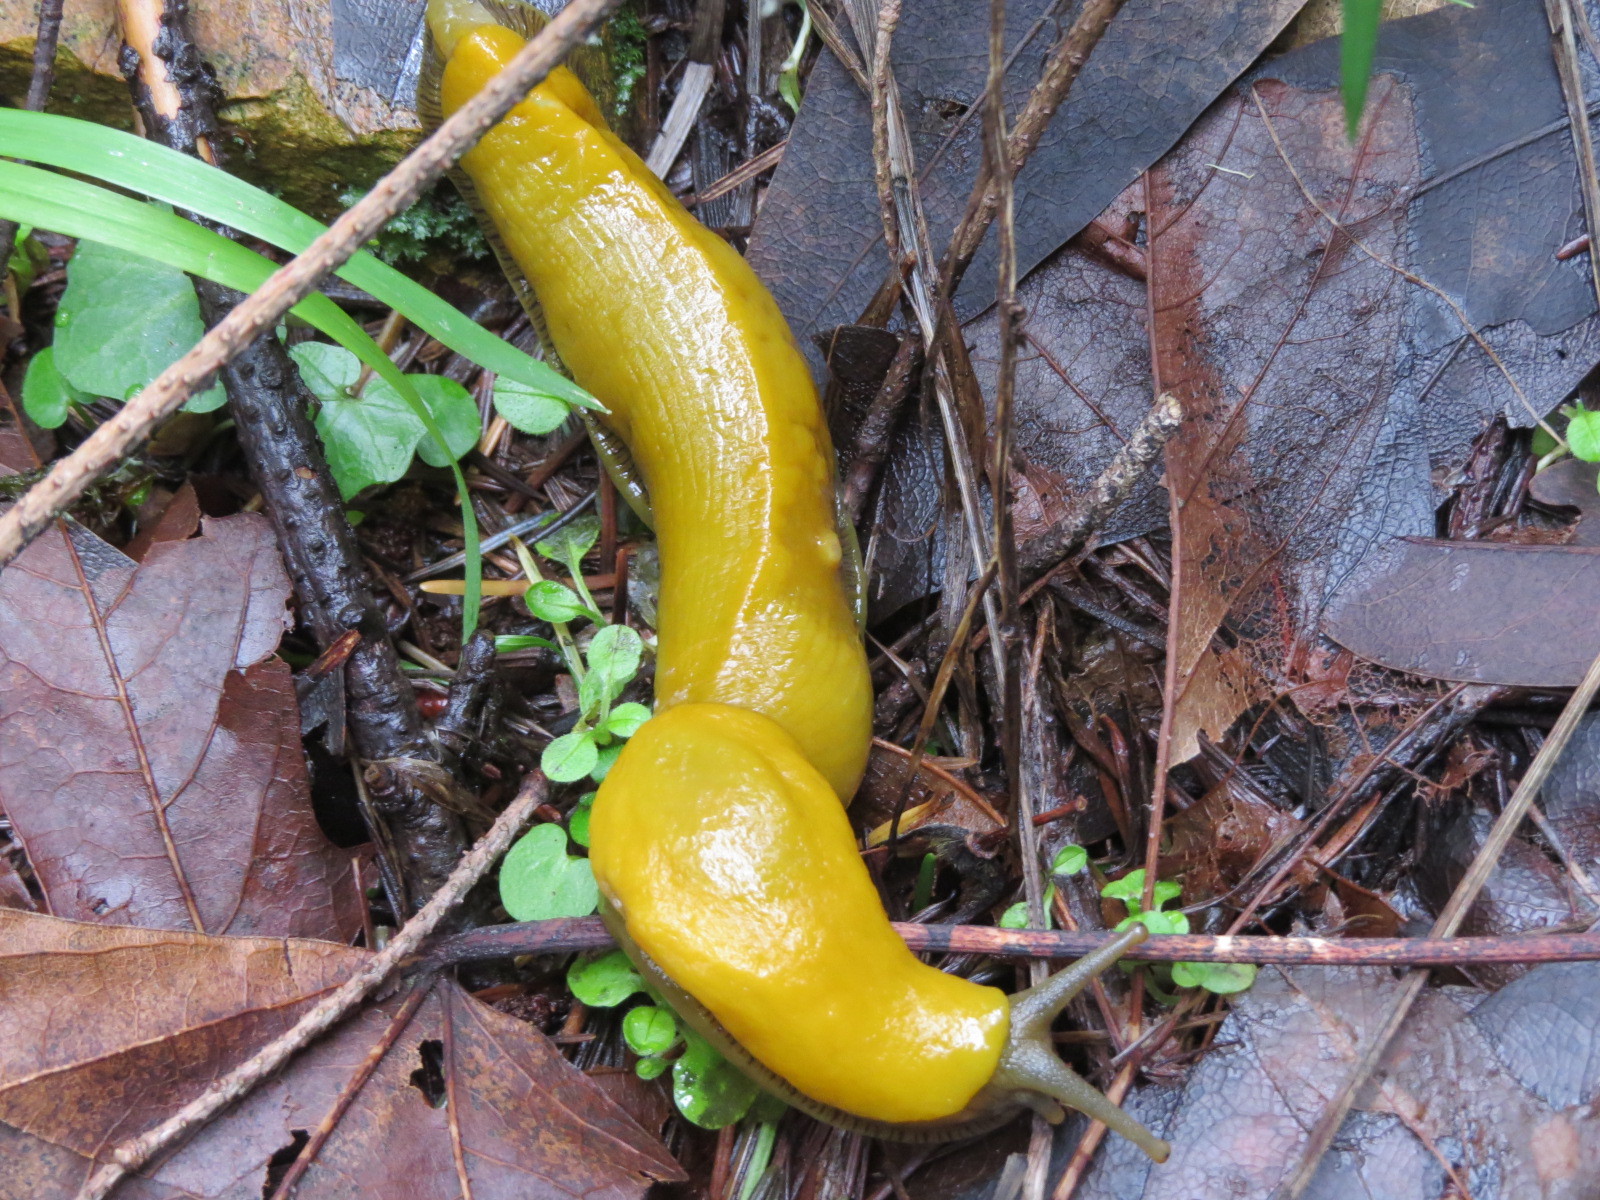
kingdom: Animalia
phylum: Mollusca
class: Gastropoda
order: Stylommatophora
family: Ariolimacidae
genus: Ariolimax
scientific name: Ariolimax californicus
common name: California banana slug
